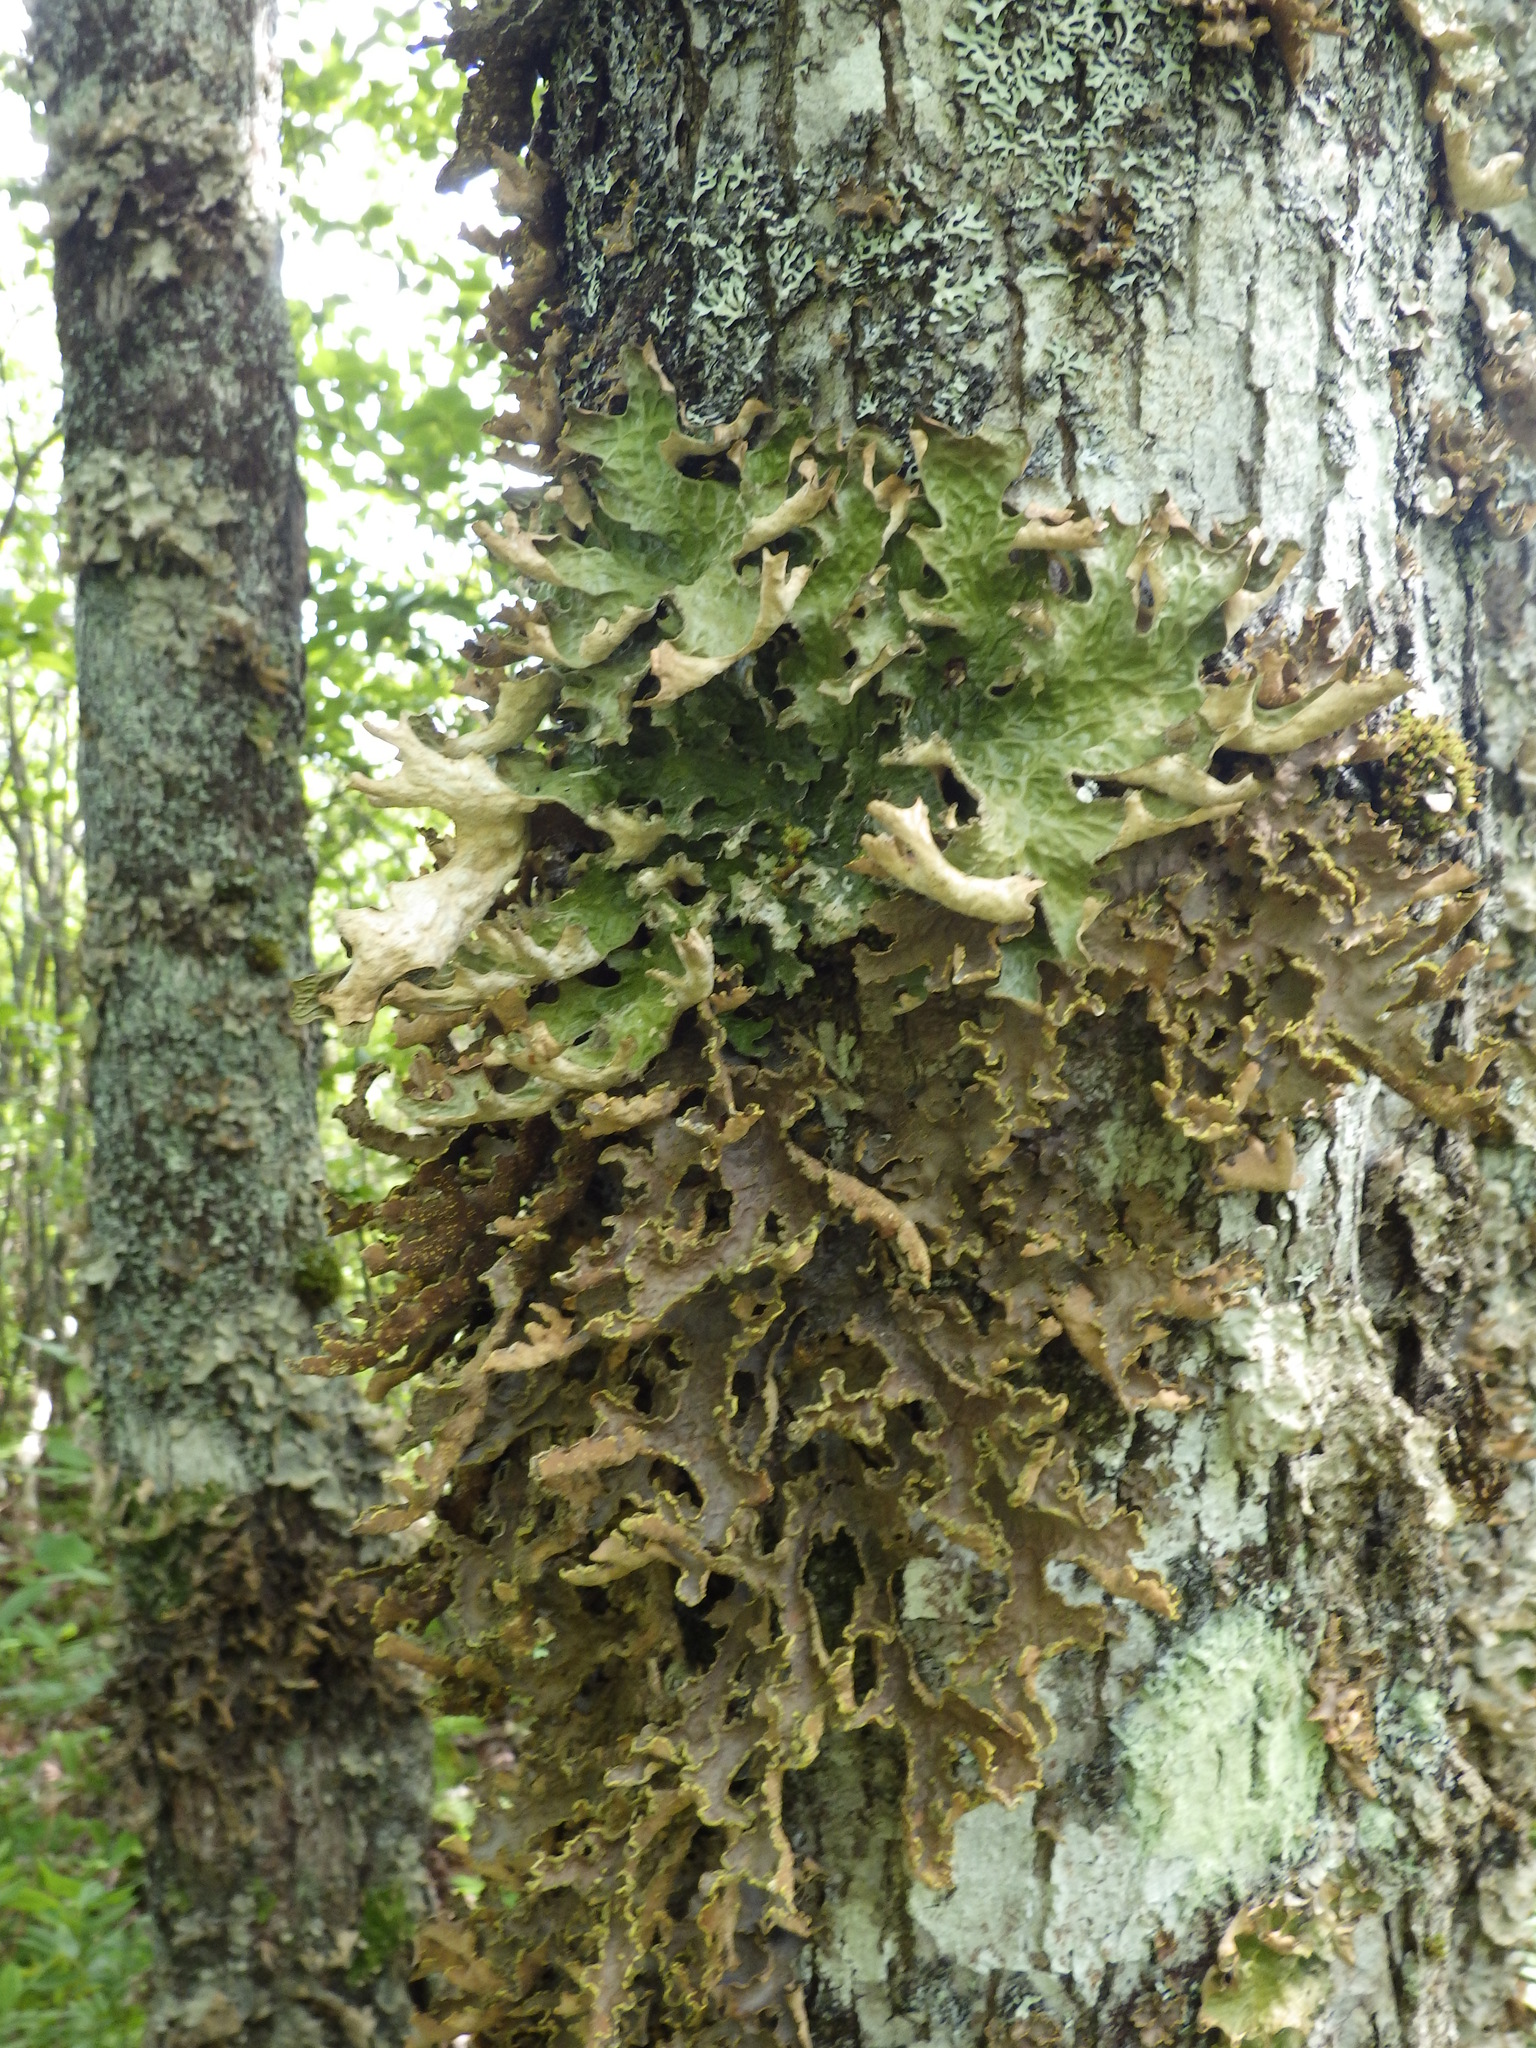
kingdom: Fungi
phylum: Ascomycota
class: Lecanoromycetes
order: Peltigerales
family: Lobariaceae
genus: Pseudocyphellaria
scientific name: Pseudocyphellaria holarctica
